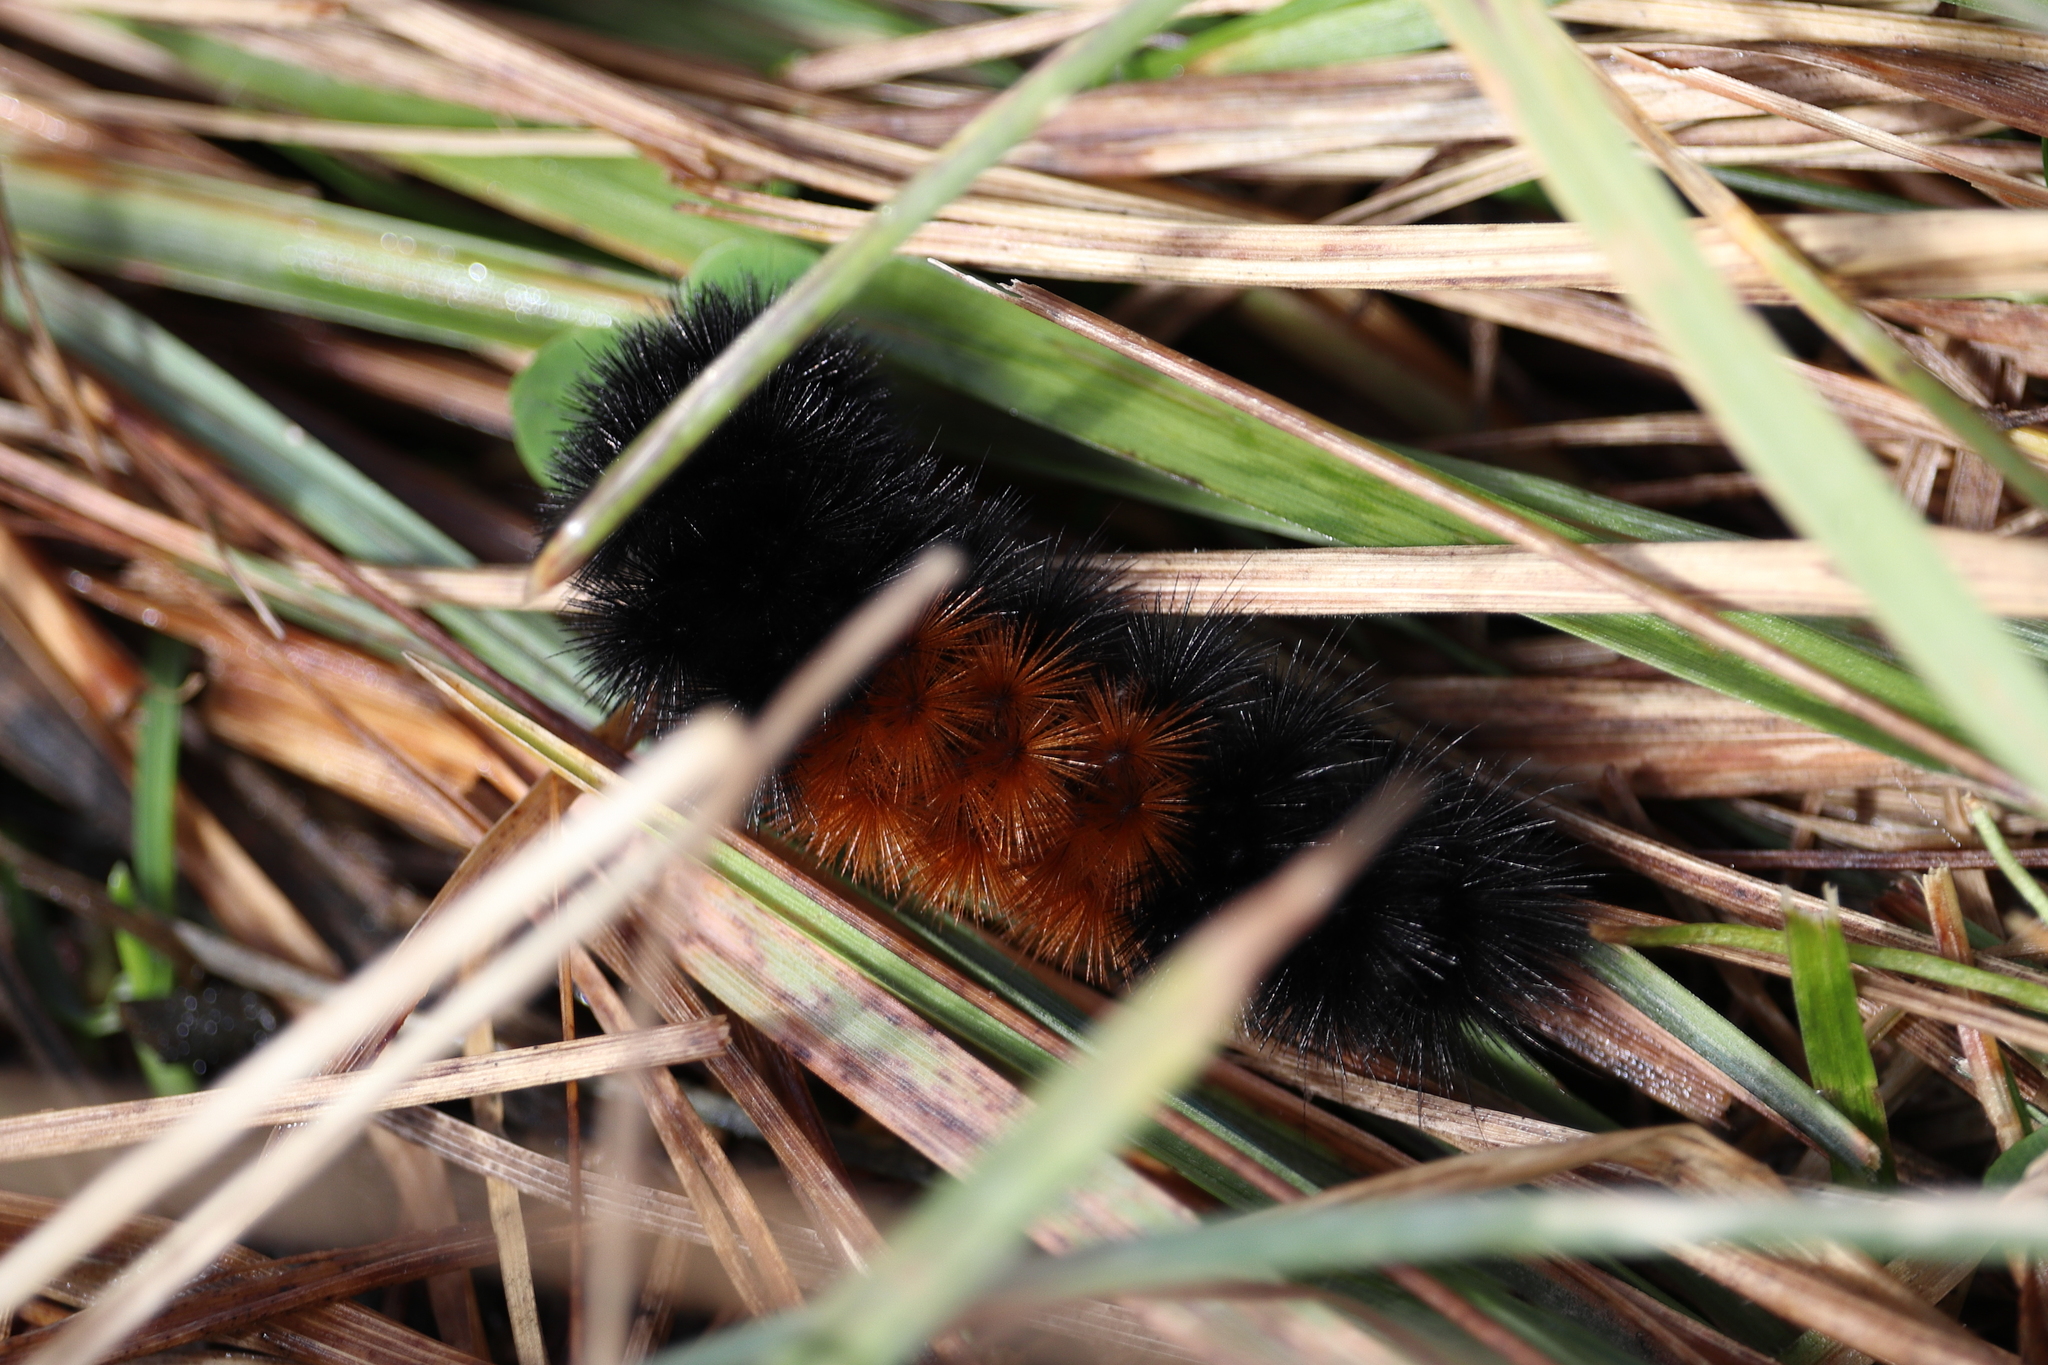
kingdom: Animalia
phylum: Arthropoda
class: Insecta
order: Lepidoptera
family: Erebidae
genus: Pyrrharctia
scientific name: Pyrrharctia isabella
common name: Isabella tiger moth
